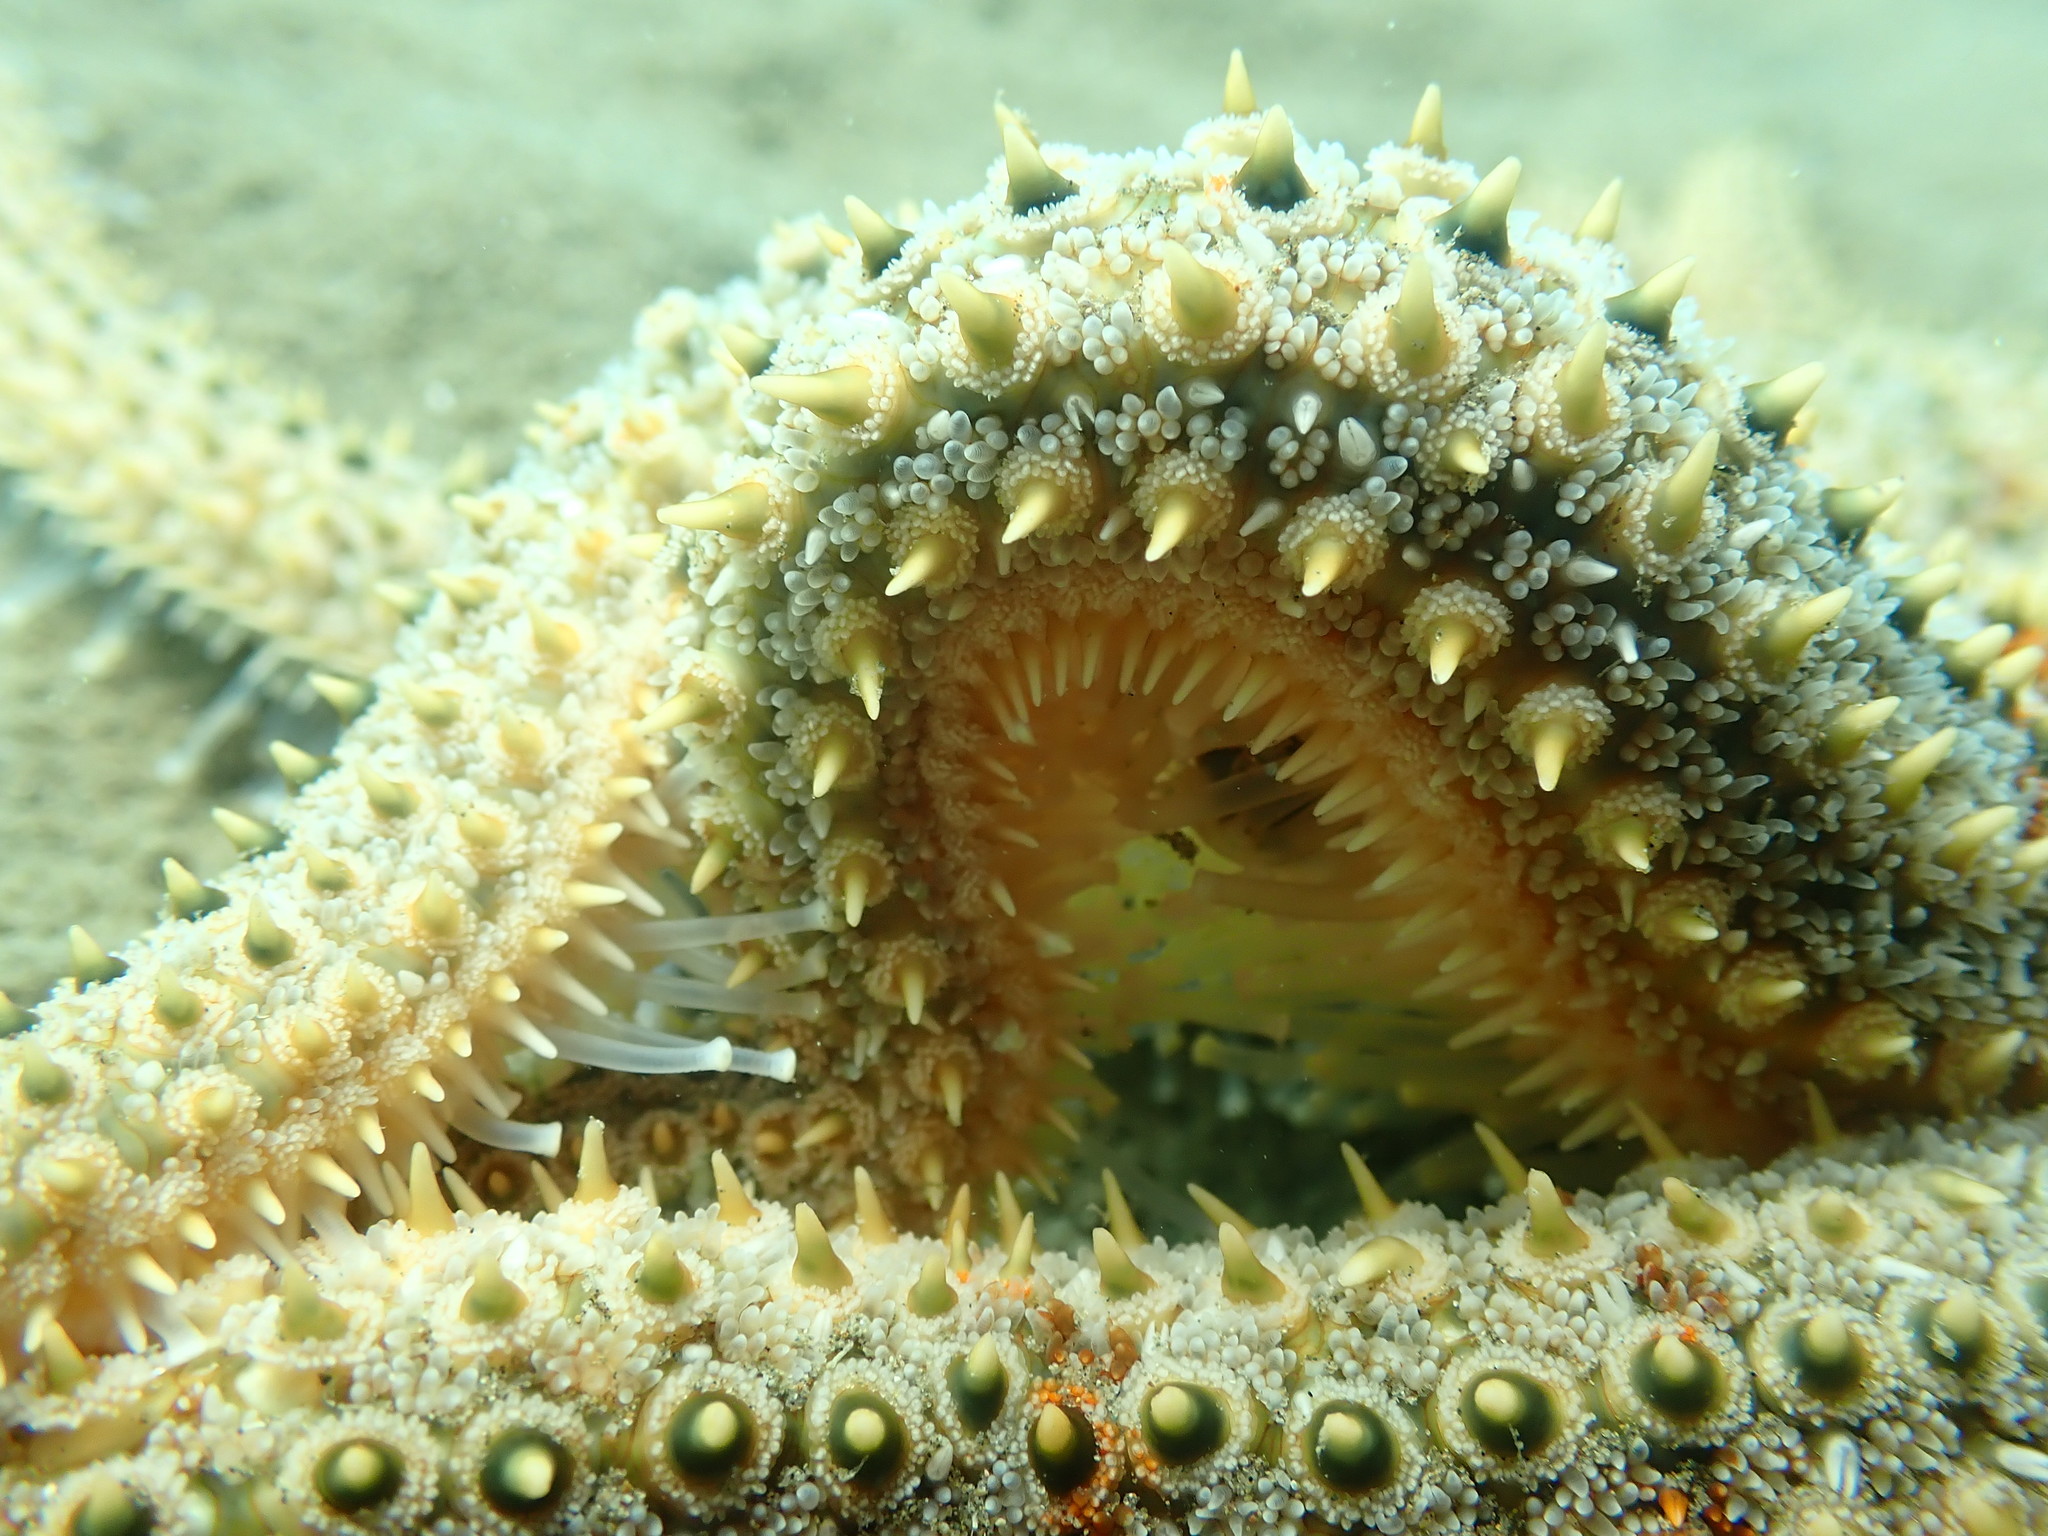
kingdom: Animalia
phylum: Echinodermata
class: Asteroidea
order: Forcipulatida
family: Asteriidae
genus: Coscinasterias
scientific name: Coscinasterias muricata
